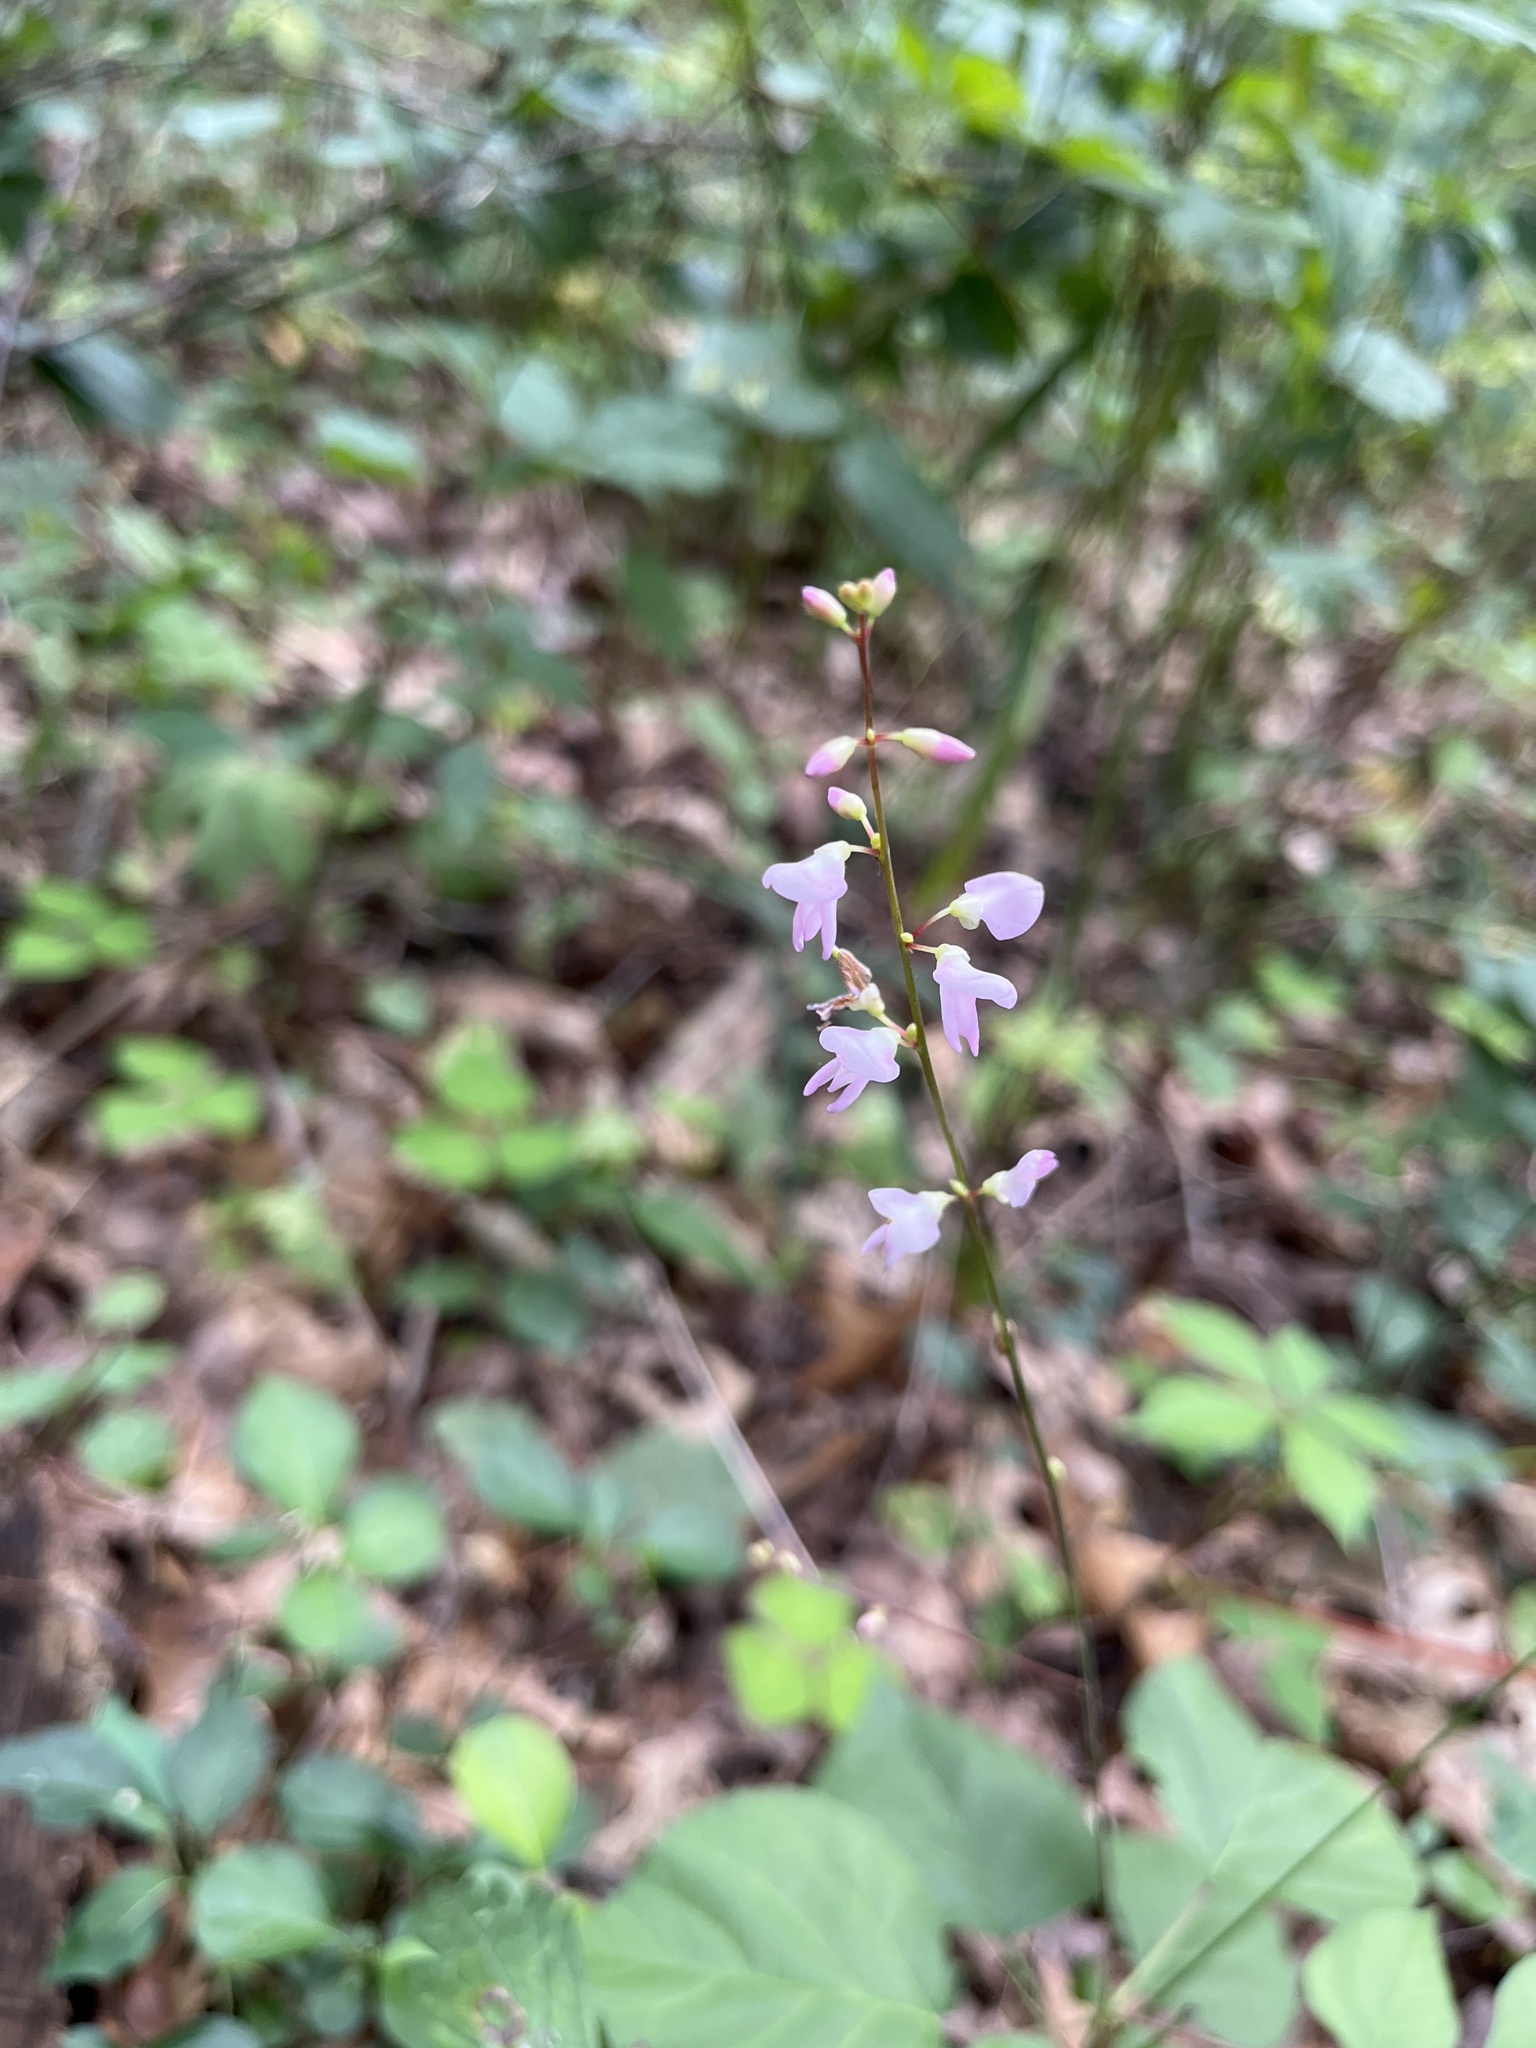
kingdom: Plantae
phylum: Tracheophyta
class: Magnoliopsida
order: Fabales
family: Fabaceae
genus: Hylodesmum
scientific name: Hylodesmum glutinosum
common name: Clustered-leaved tick-trefoil
